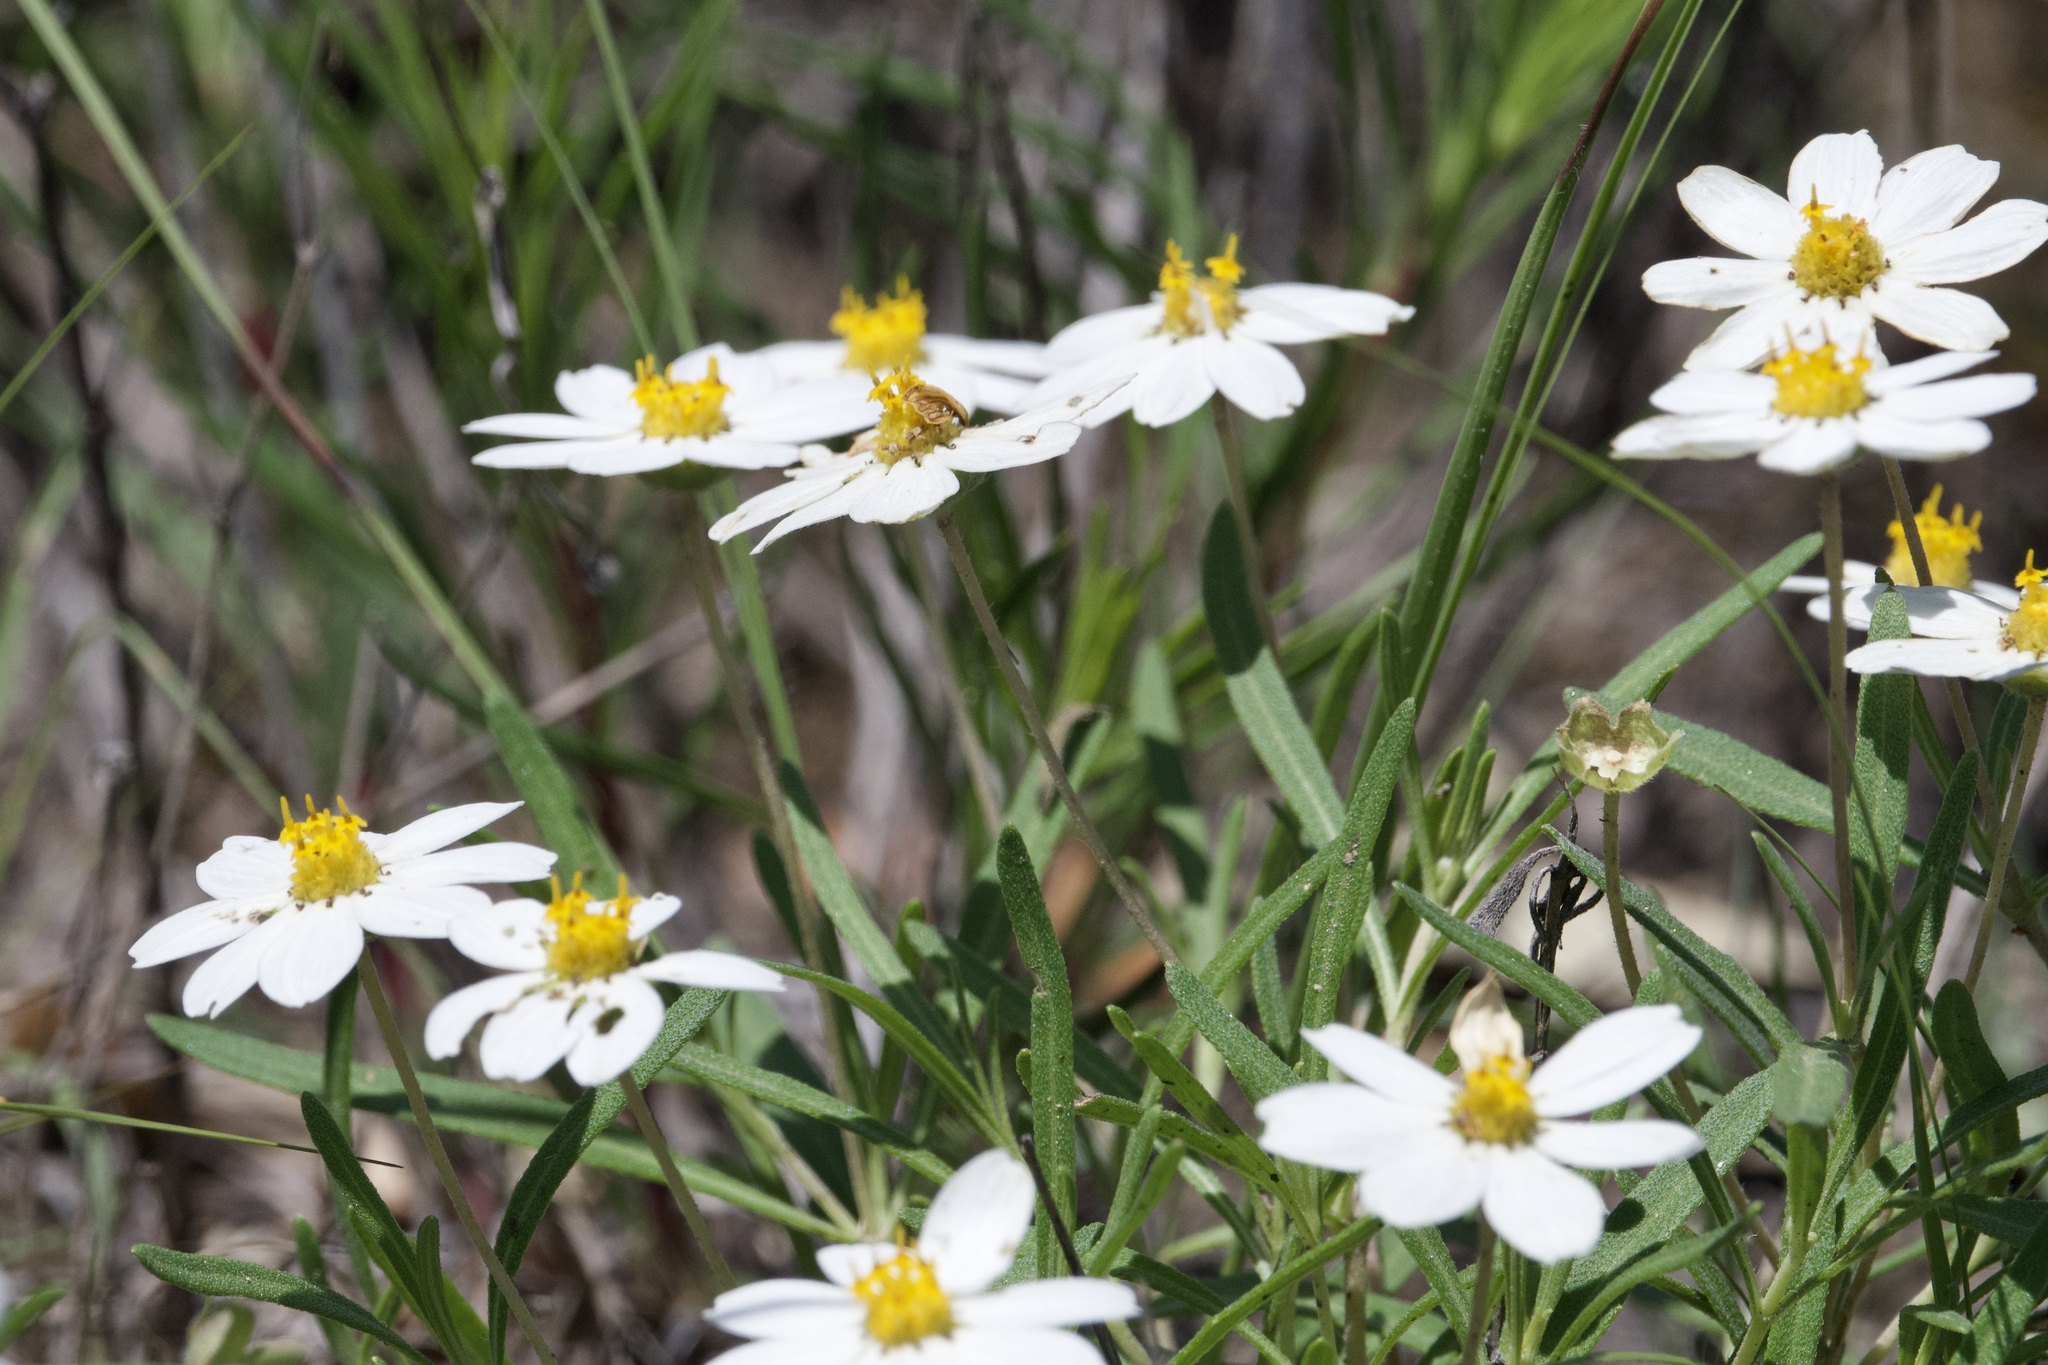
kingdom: Plantae
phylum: Tracheophyta
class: Magnoliopsida
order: Asterales
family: Asteraceae
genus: Melampodium
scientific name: Melampodium leucanthum
